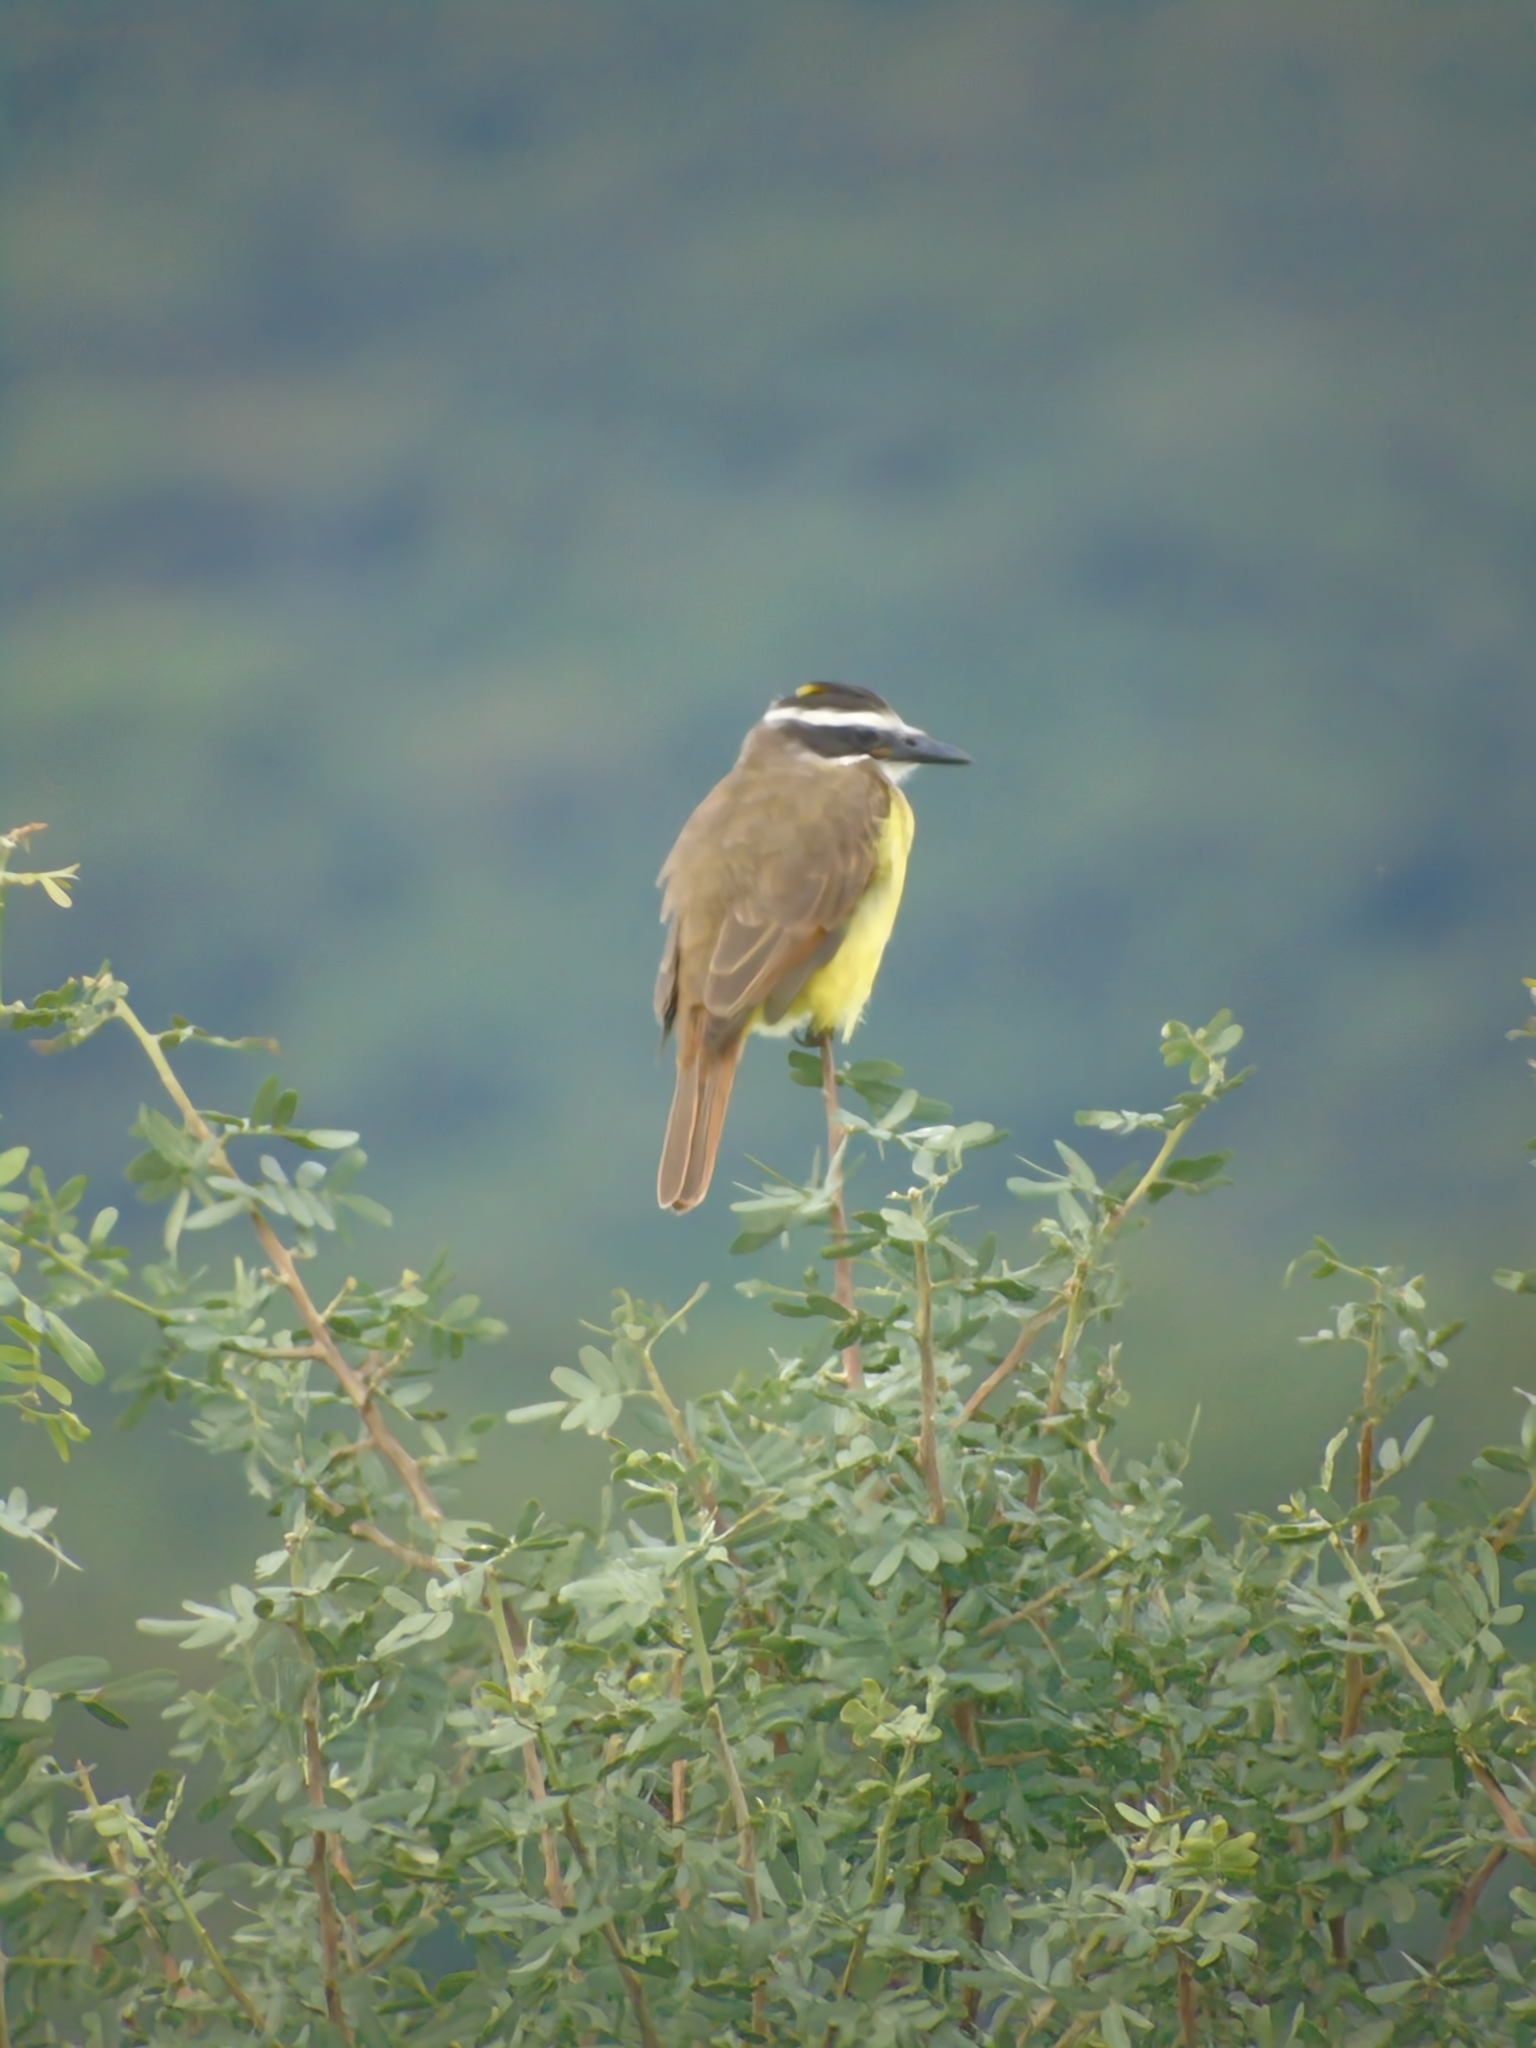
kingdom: Animalia
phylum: Chordata
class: Aves
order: Passeriformes
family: Tyrannidae
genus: Pitangus
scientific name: Pitangus sulphuratus
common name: Great kiskadee
